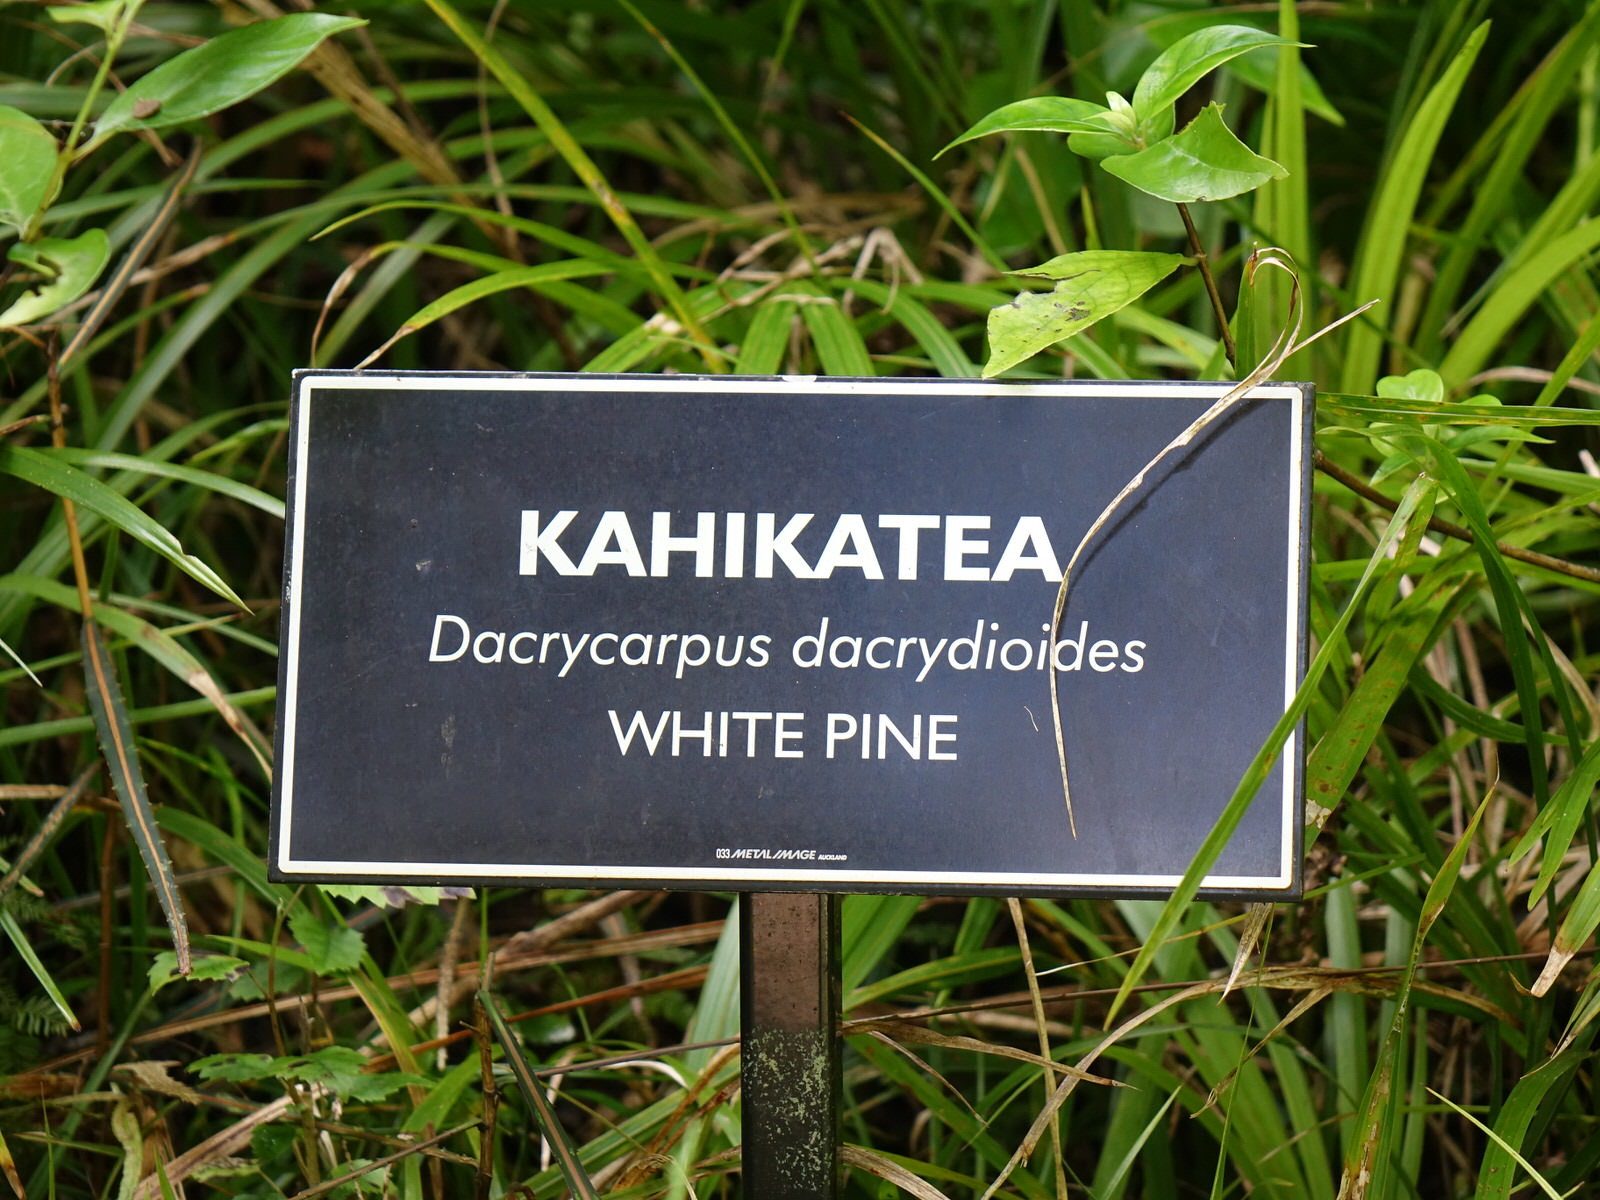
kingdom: Plantae
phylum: Tracheophyta
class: Pinopsida
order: Pinales
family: Podocarpaceae
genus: Dacrycarpus
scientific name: Dacrycarpus dacrydioides
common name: White pine
